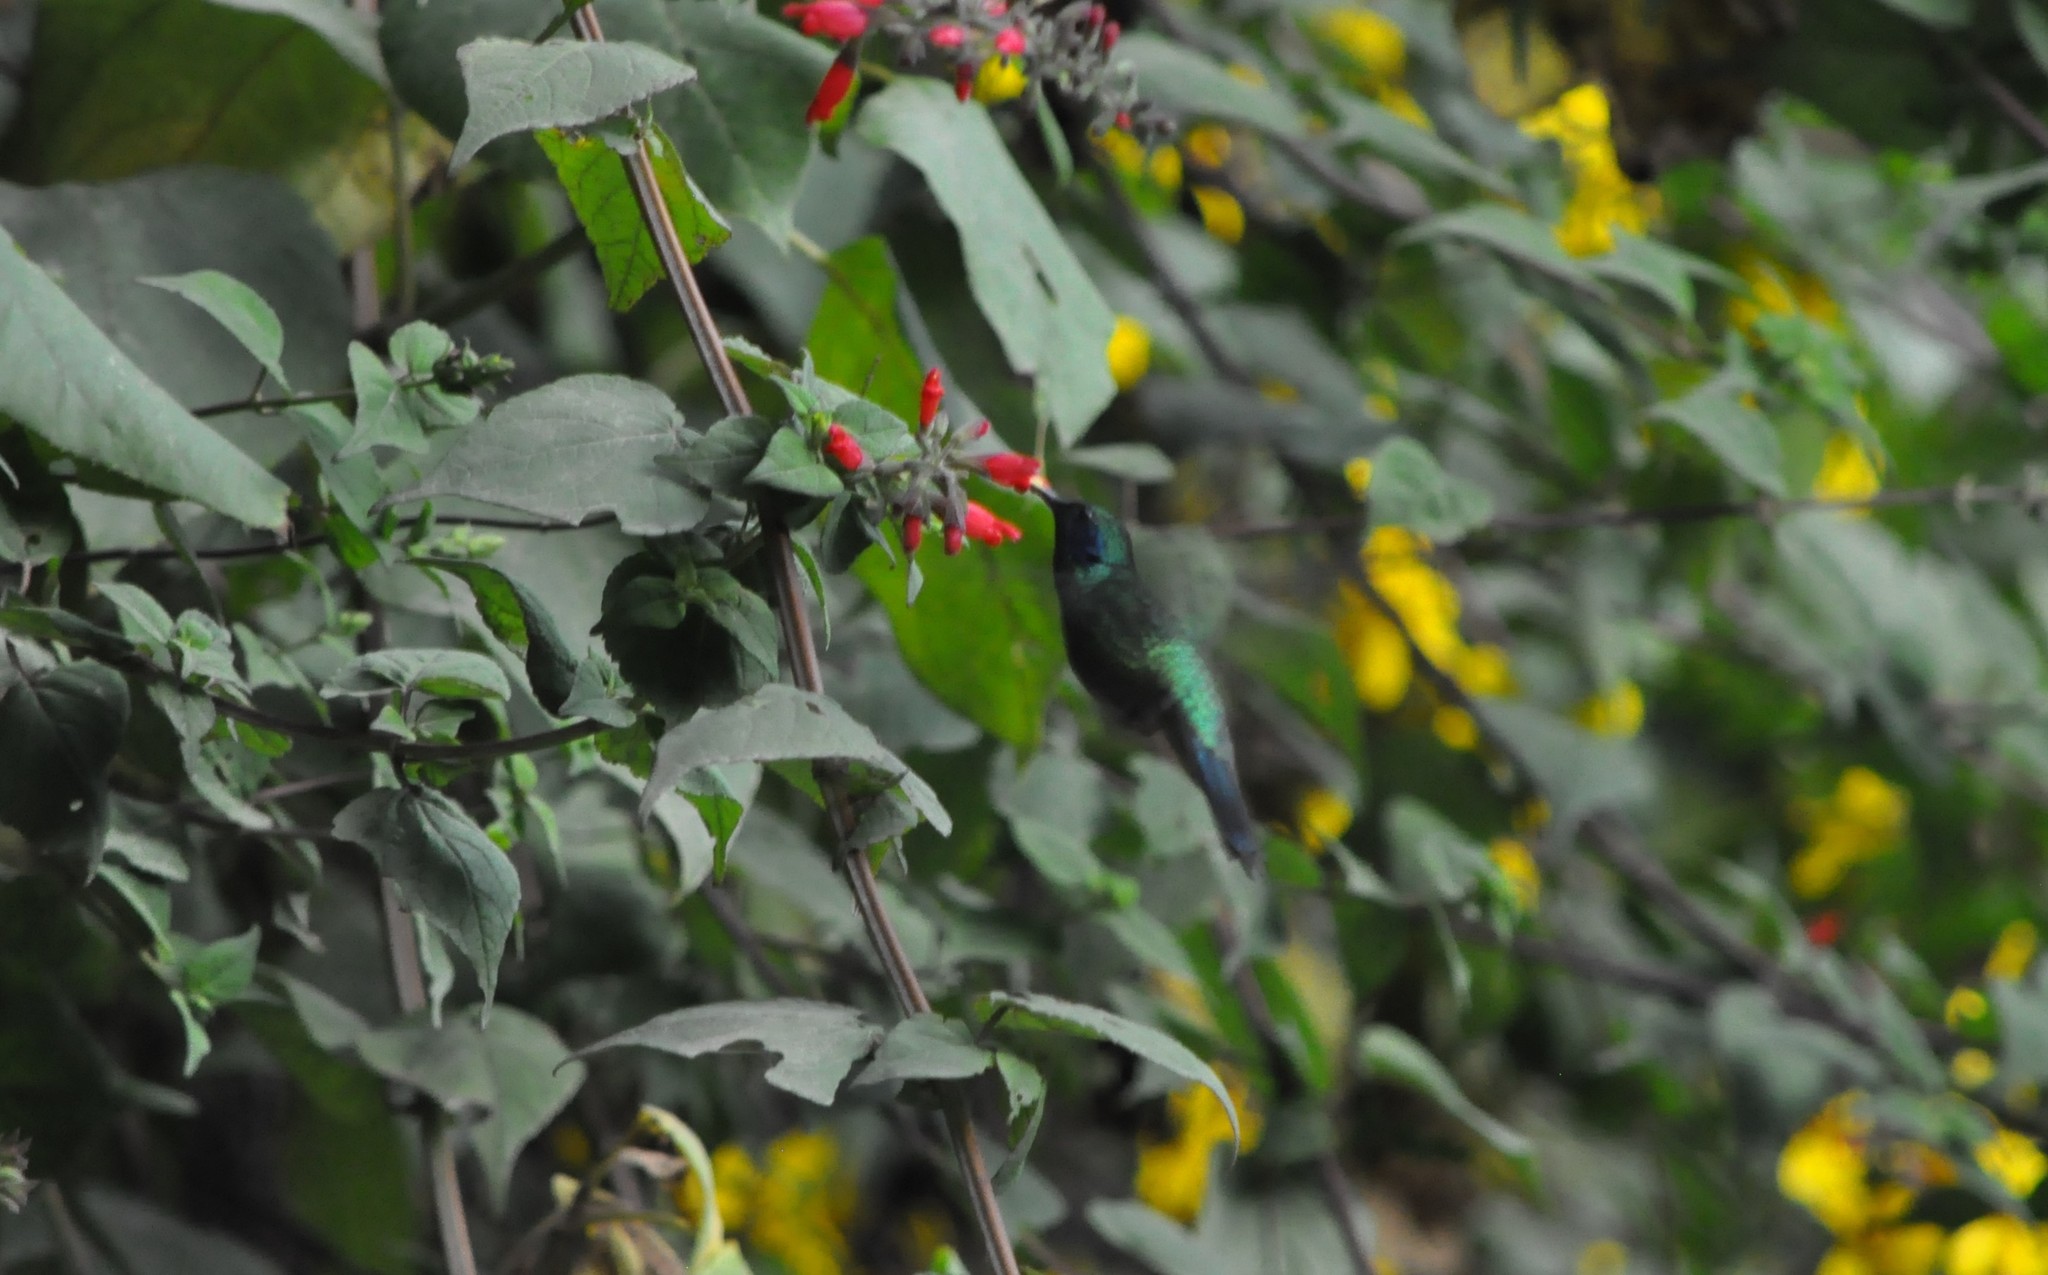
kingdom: Animalia
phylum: Chordata
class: Aves
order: Apodiformes
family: Trochilidae
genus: Colibri
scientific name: Colibri cyanotus
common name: Lesser violetear
